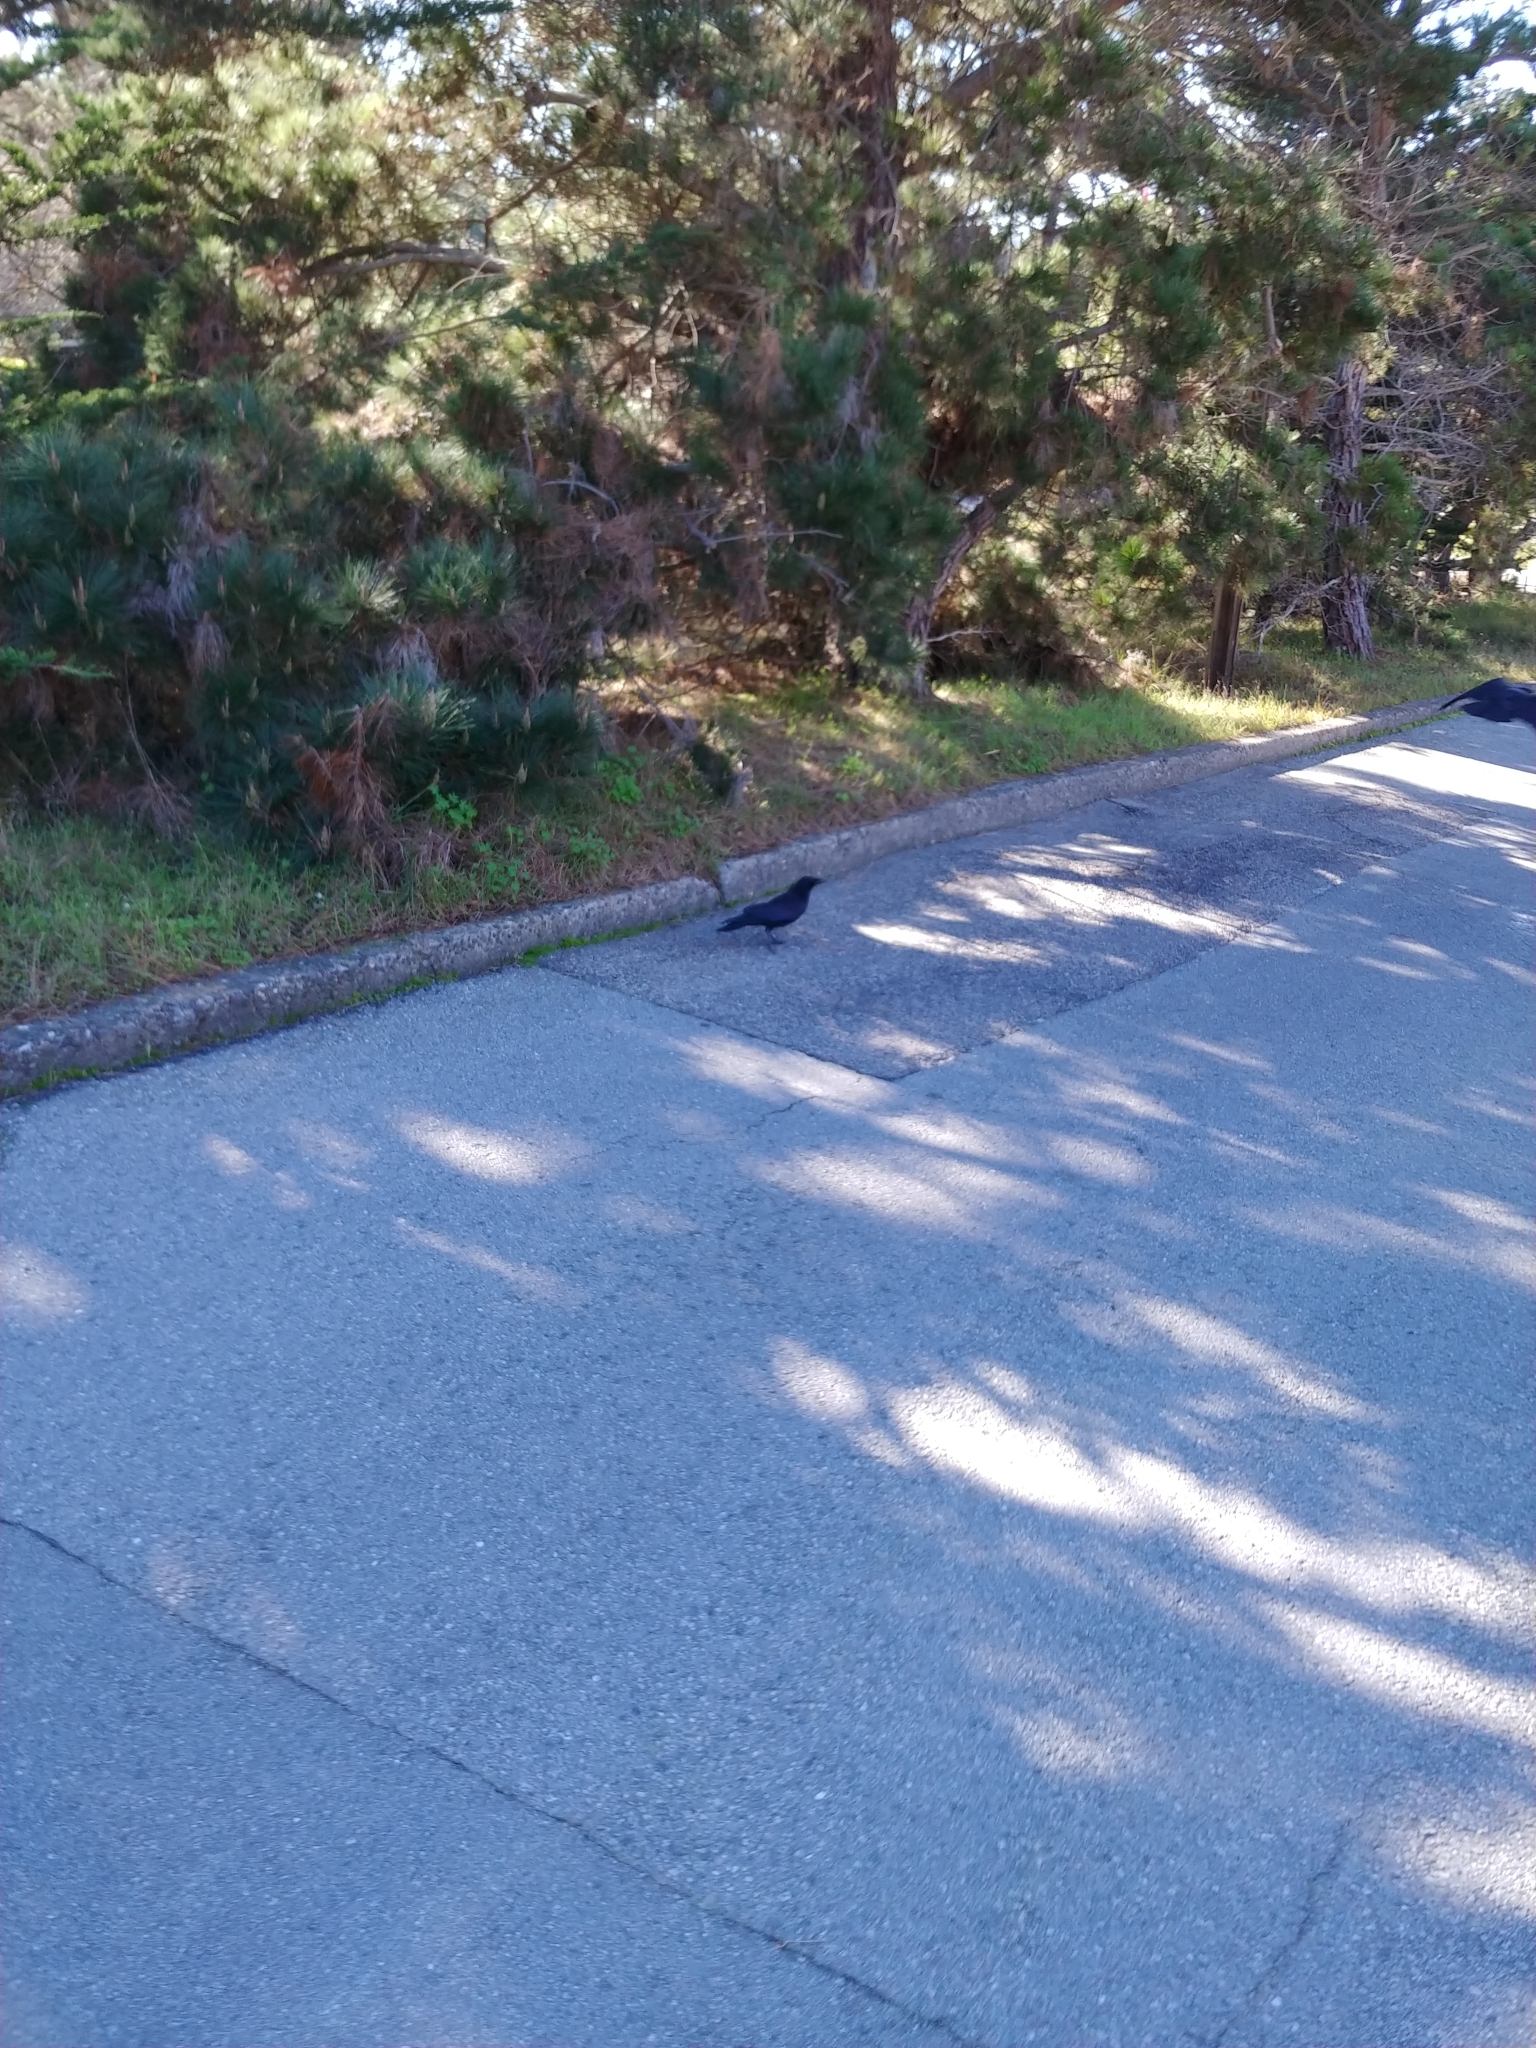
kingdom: Animalia
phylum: Chordata
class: Aves
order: Passeriformes
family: Corvidae
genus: Corvus
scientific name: Corvus brachyrhynchos
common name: American crow
